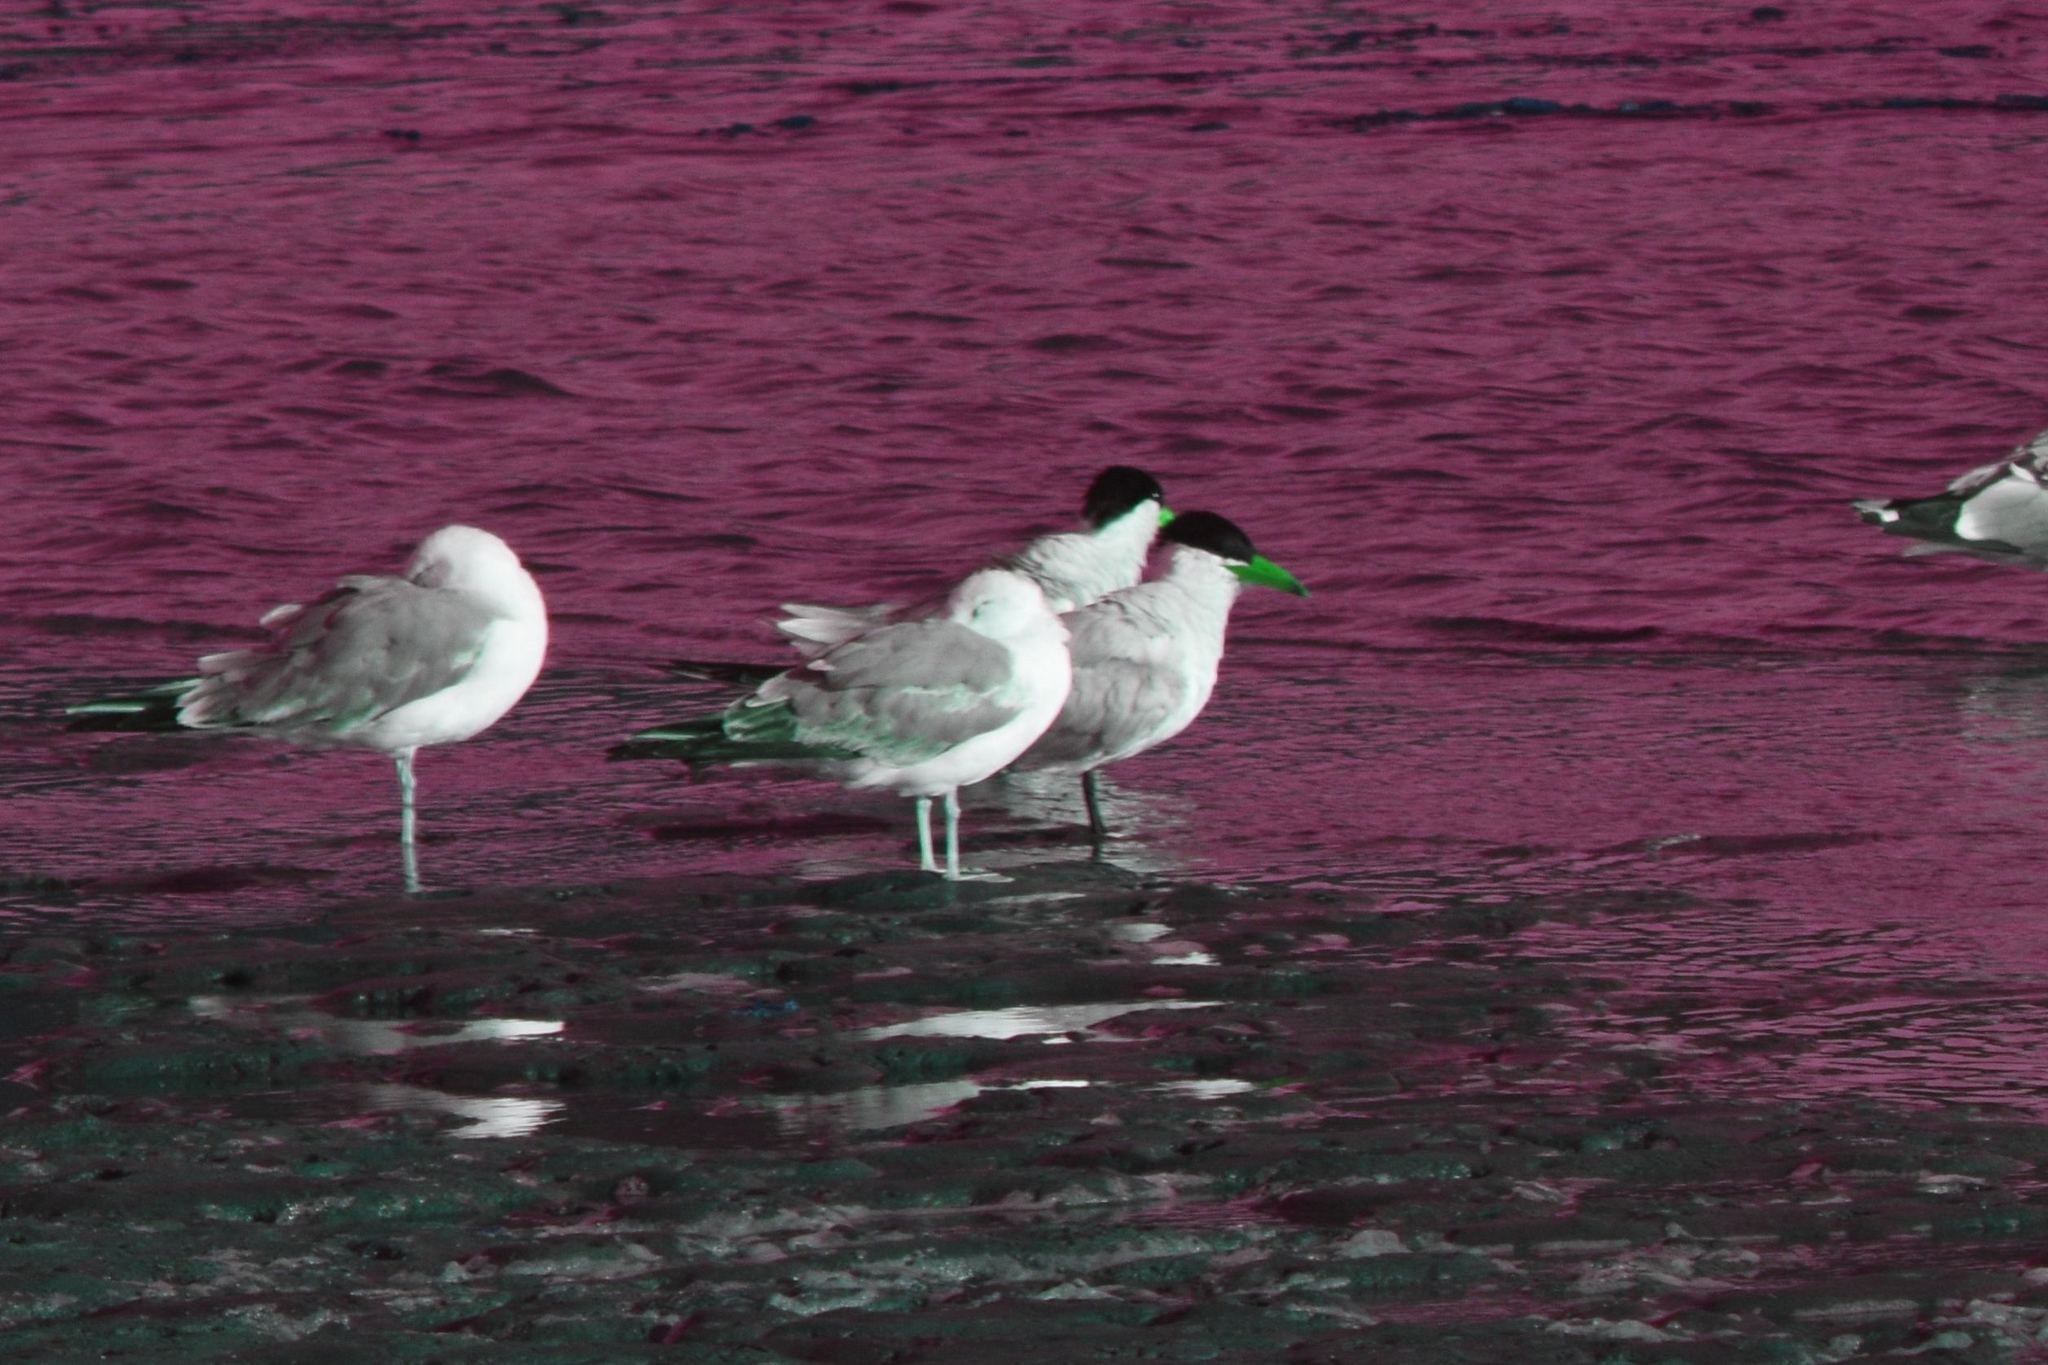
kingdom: Animalia
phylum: Chordata
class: Aves
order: Charadriiformes
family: Laridae
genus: Hydroprogne
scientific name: Hydroprogne caspia
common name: Caspian tern
